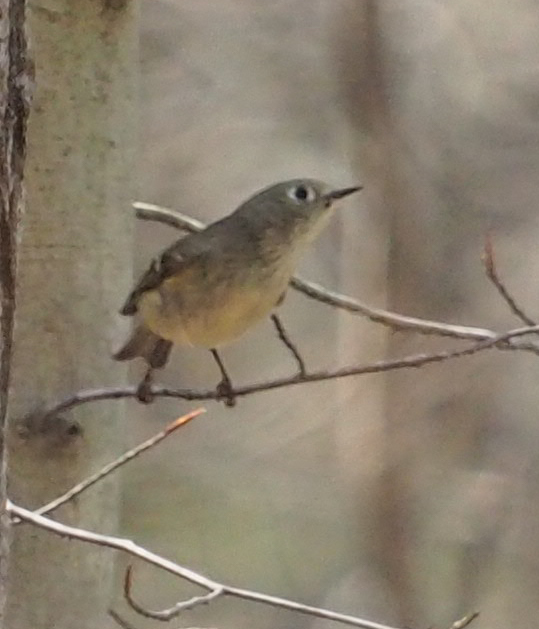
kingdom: Animalia
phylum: Chordata
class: Aves
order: Passeriformes
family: Regulidae
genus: Regulus
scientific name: Regulus calendula
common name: Ruby-crowned kinglet
